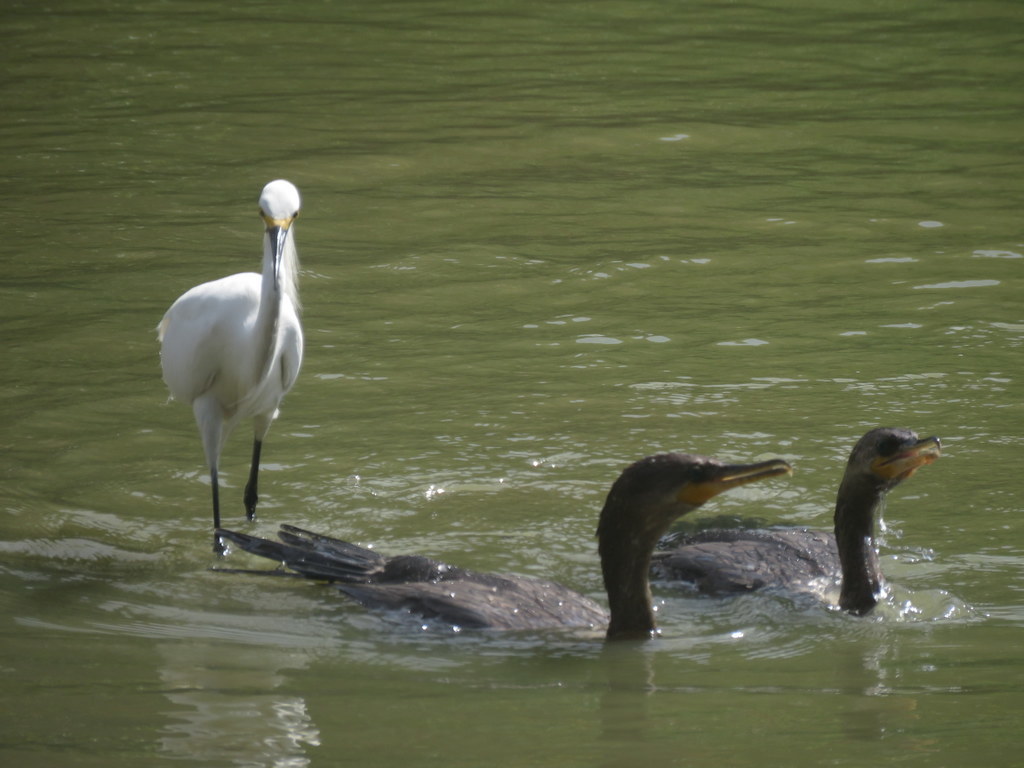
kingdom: Animalia
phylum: Chordata
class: Aves
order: Pelecaniformes
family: Ardeidae
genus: Egretta
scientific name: Egretta thula
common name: Snowy egret
